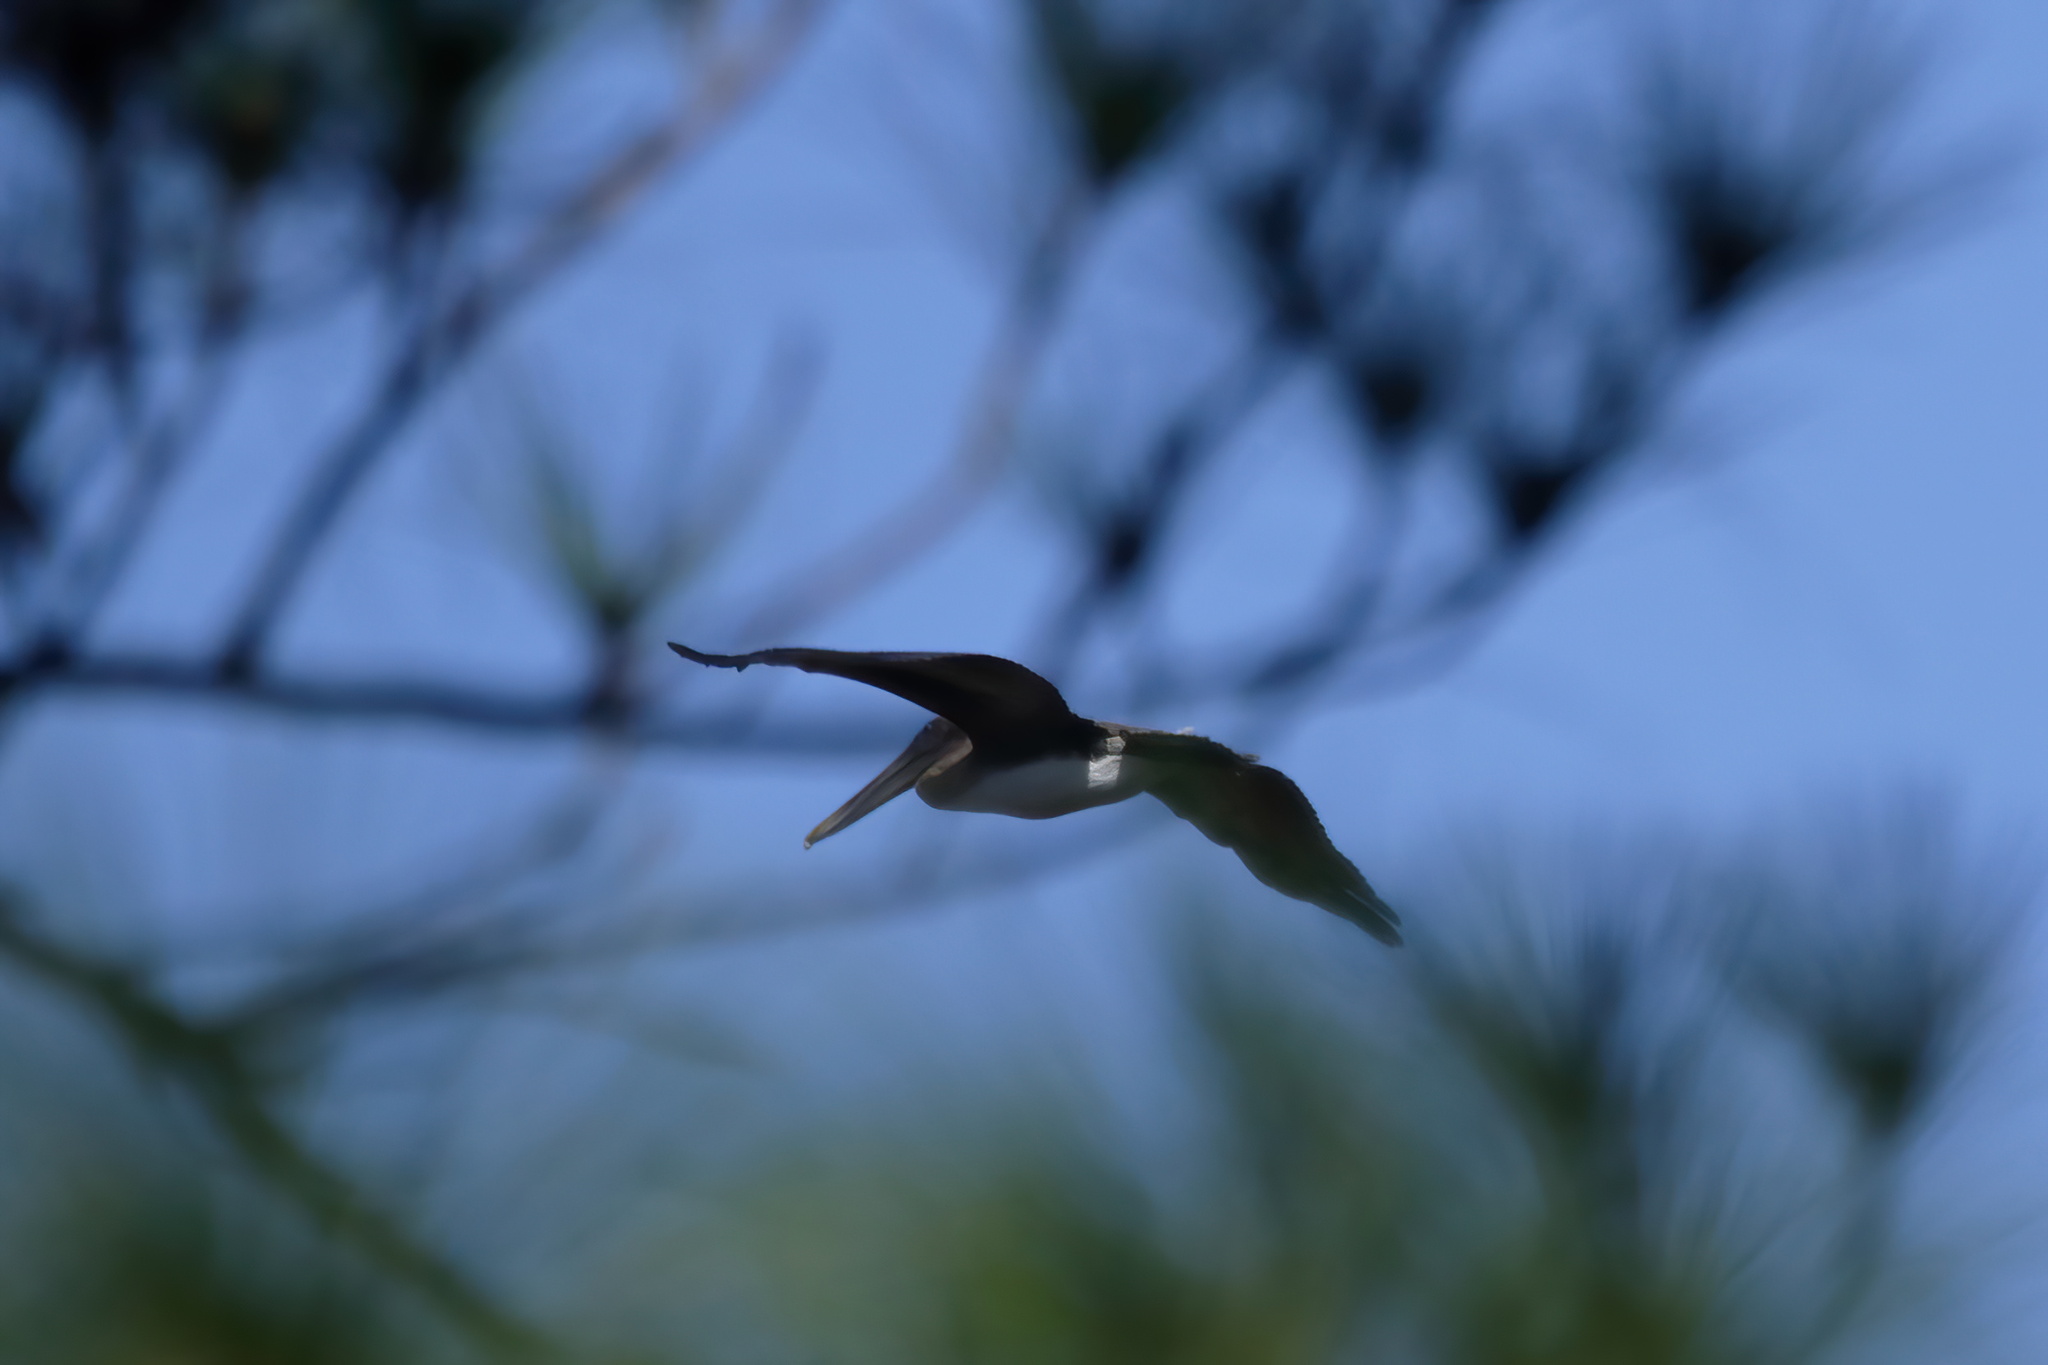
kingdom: Animalia
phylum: Chordata
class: Aves
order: Pelecaniformes
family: Pelecanidae
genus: Pelecanus
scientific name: Pelecanus occidentalis
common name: Brown pelican
